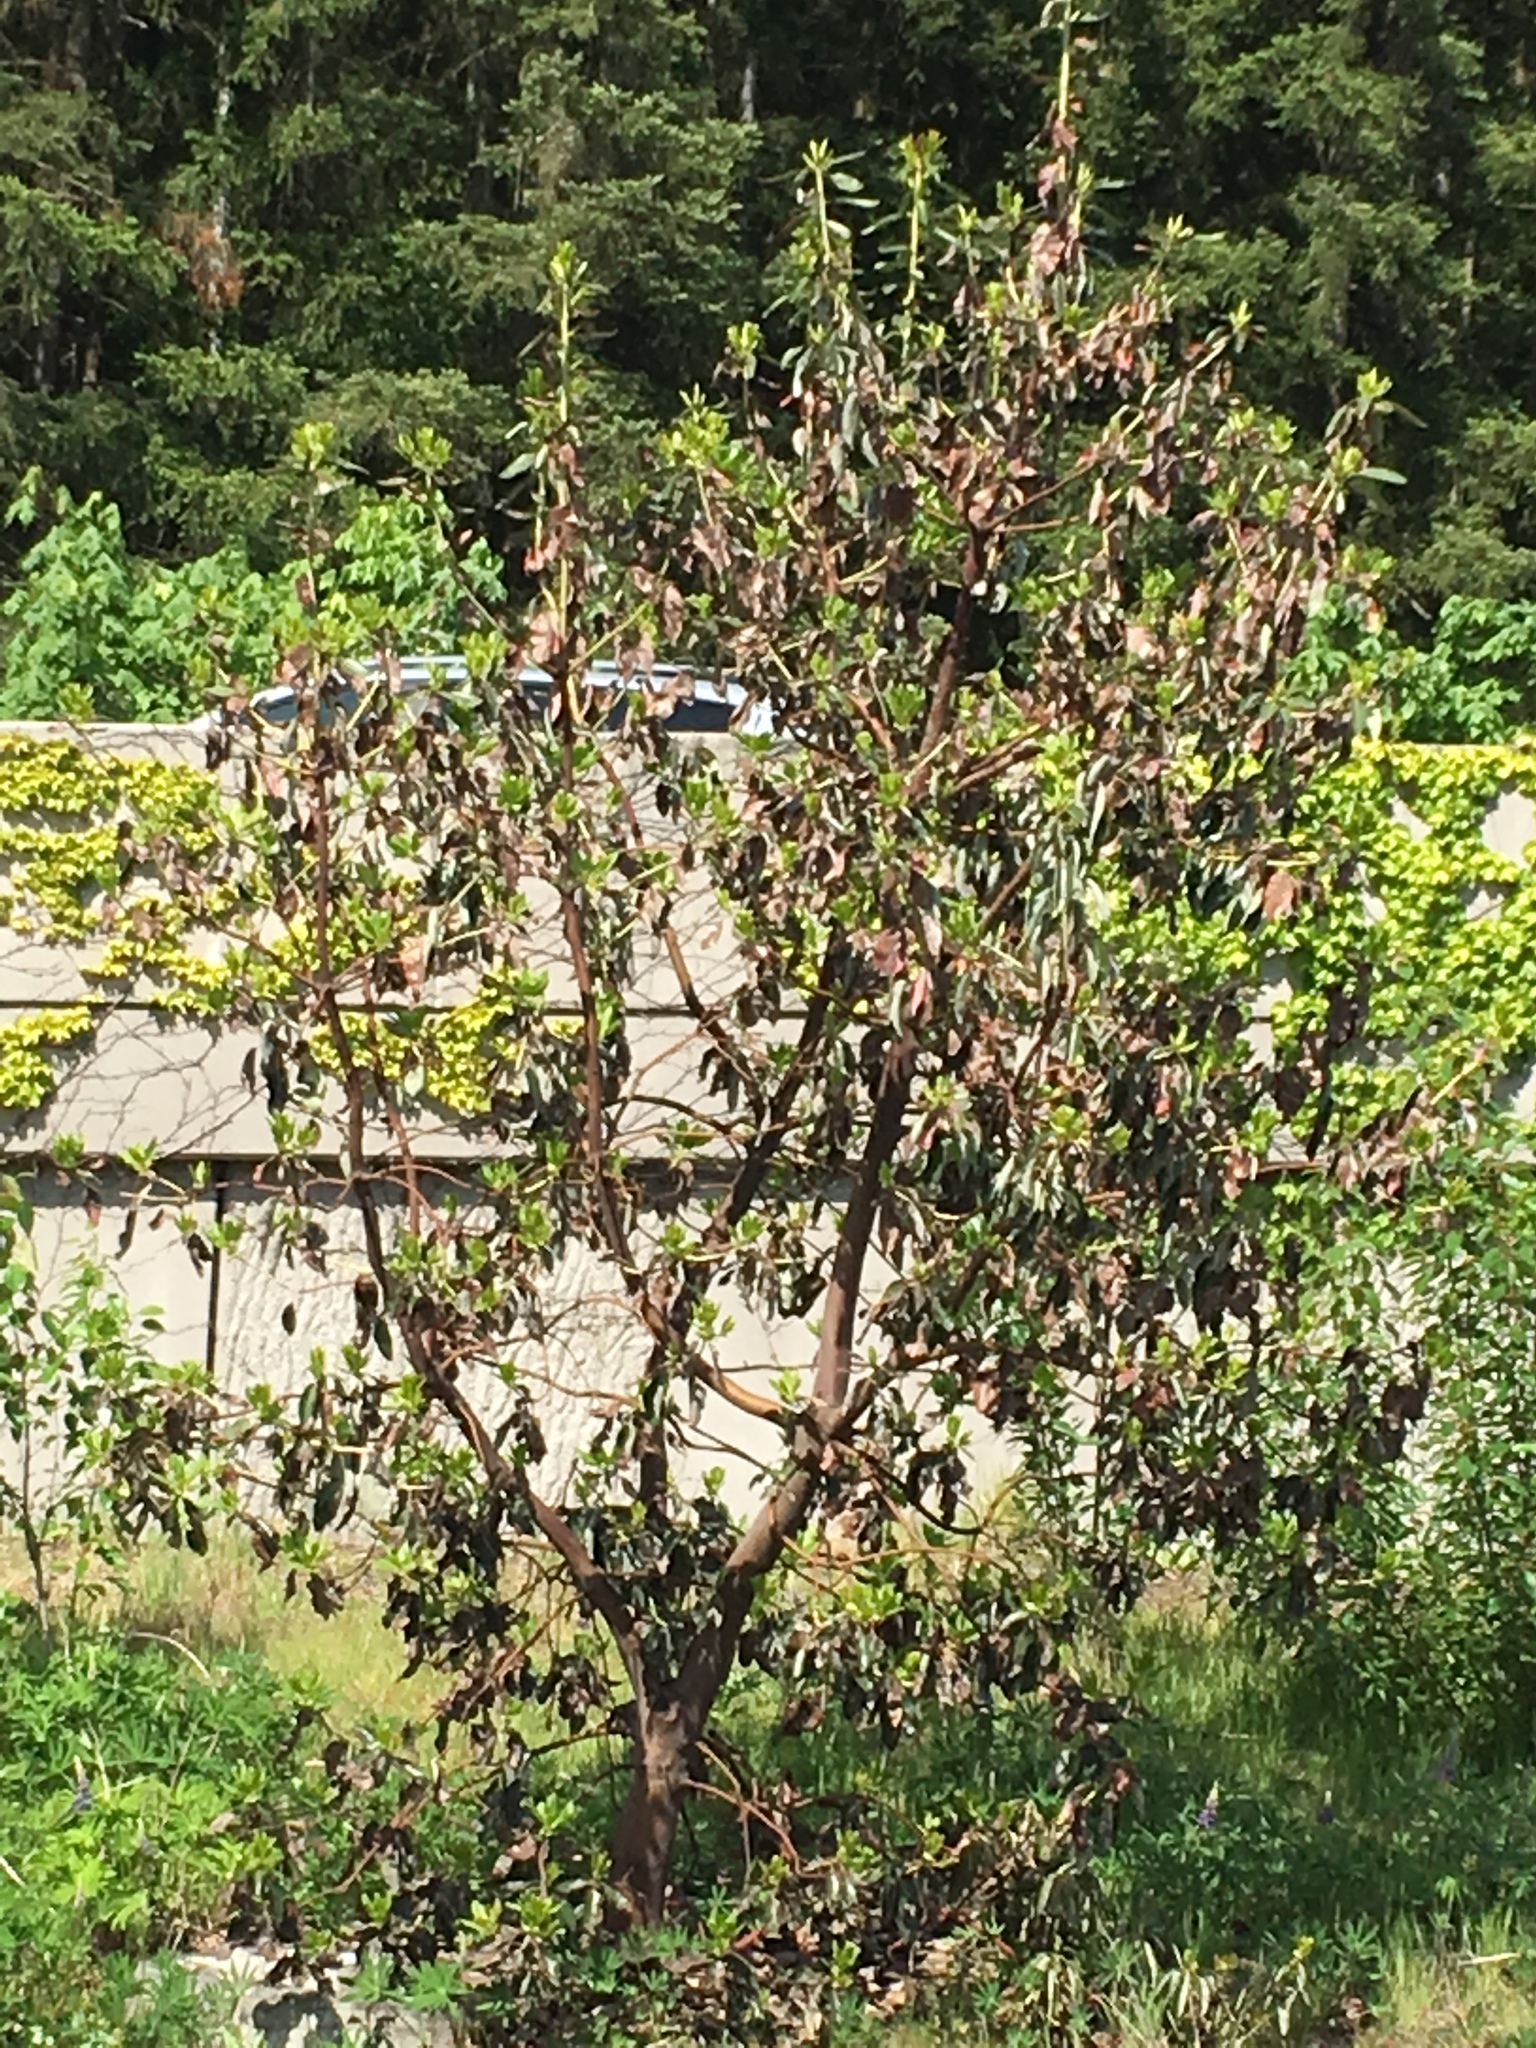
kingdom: Plantae
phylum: Tracheophyta
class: Magnoliopsida
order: Ericales
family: Ericaceae
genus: Arbutus
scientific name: Arbutus menziesii
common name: Pacific madrone
